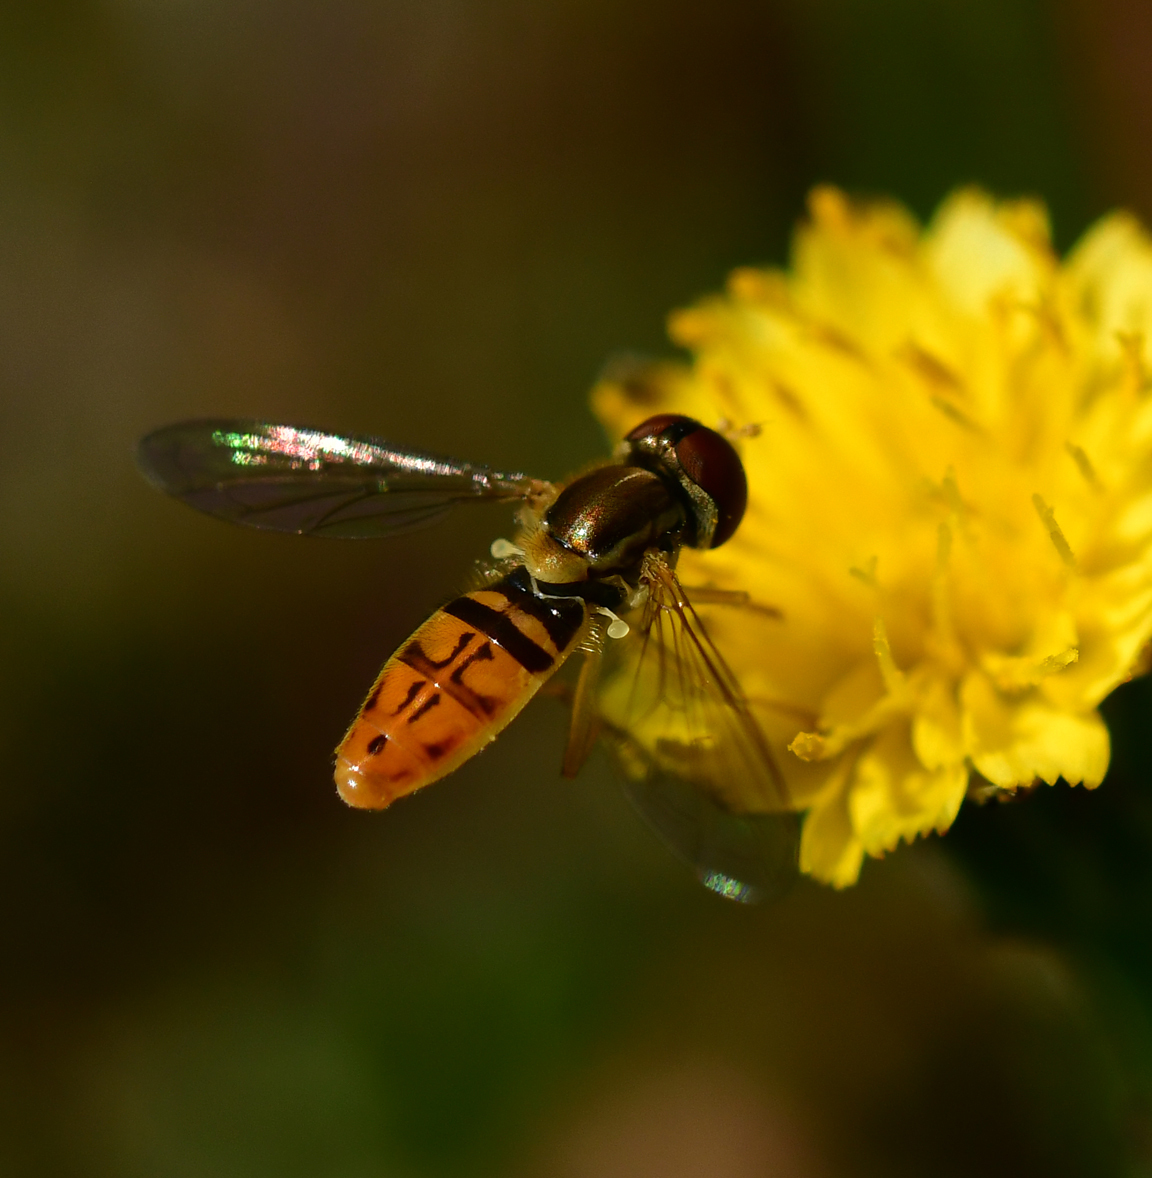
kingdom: Animalia
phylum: Arthropoda
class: Insecta
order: Diptera
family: Syrphidae
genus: Toxomerus
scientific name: Toxomerus marginatus
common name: Syrphid fly
